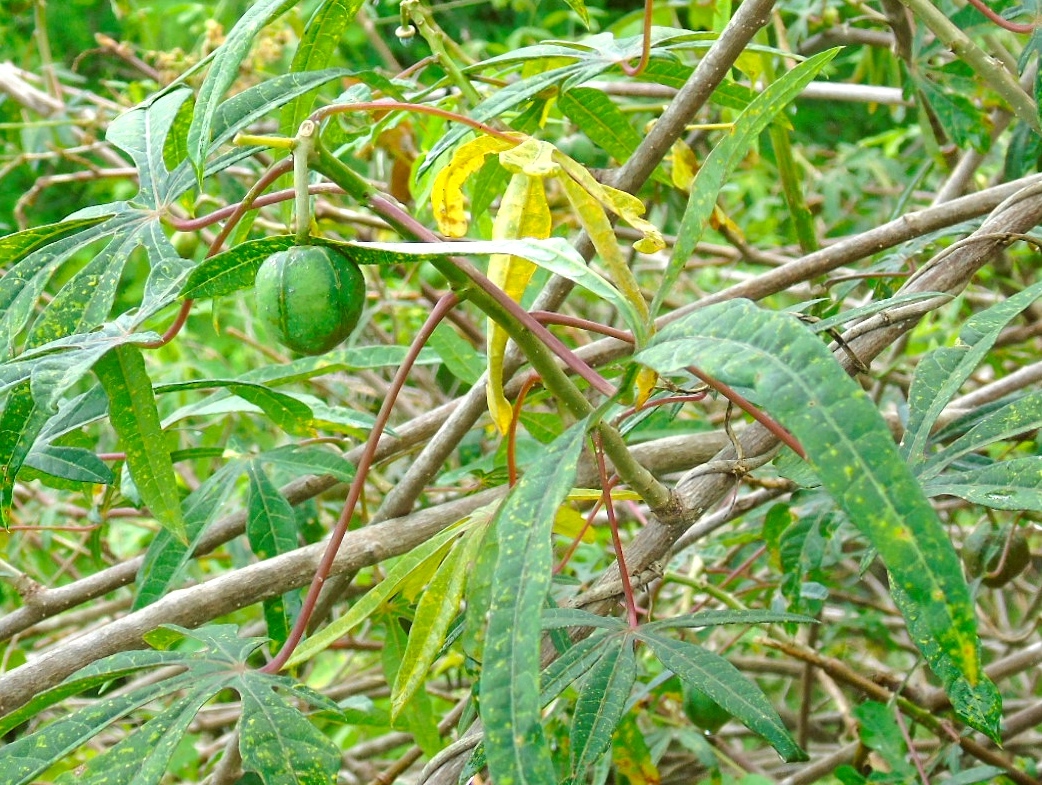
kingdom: Plantae
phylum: Tracheophyta
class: Magnoliopsida
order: Malpighiales
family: Euphorbiaceae
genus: Manihot
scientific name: Manihot angustiloba
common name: Desert mountain manihot
